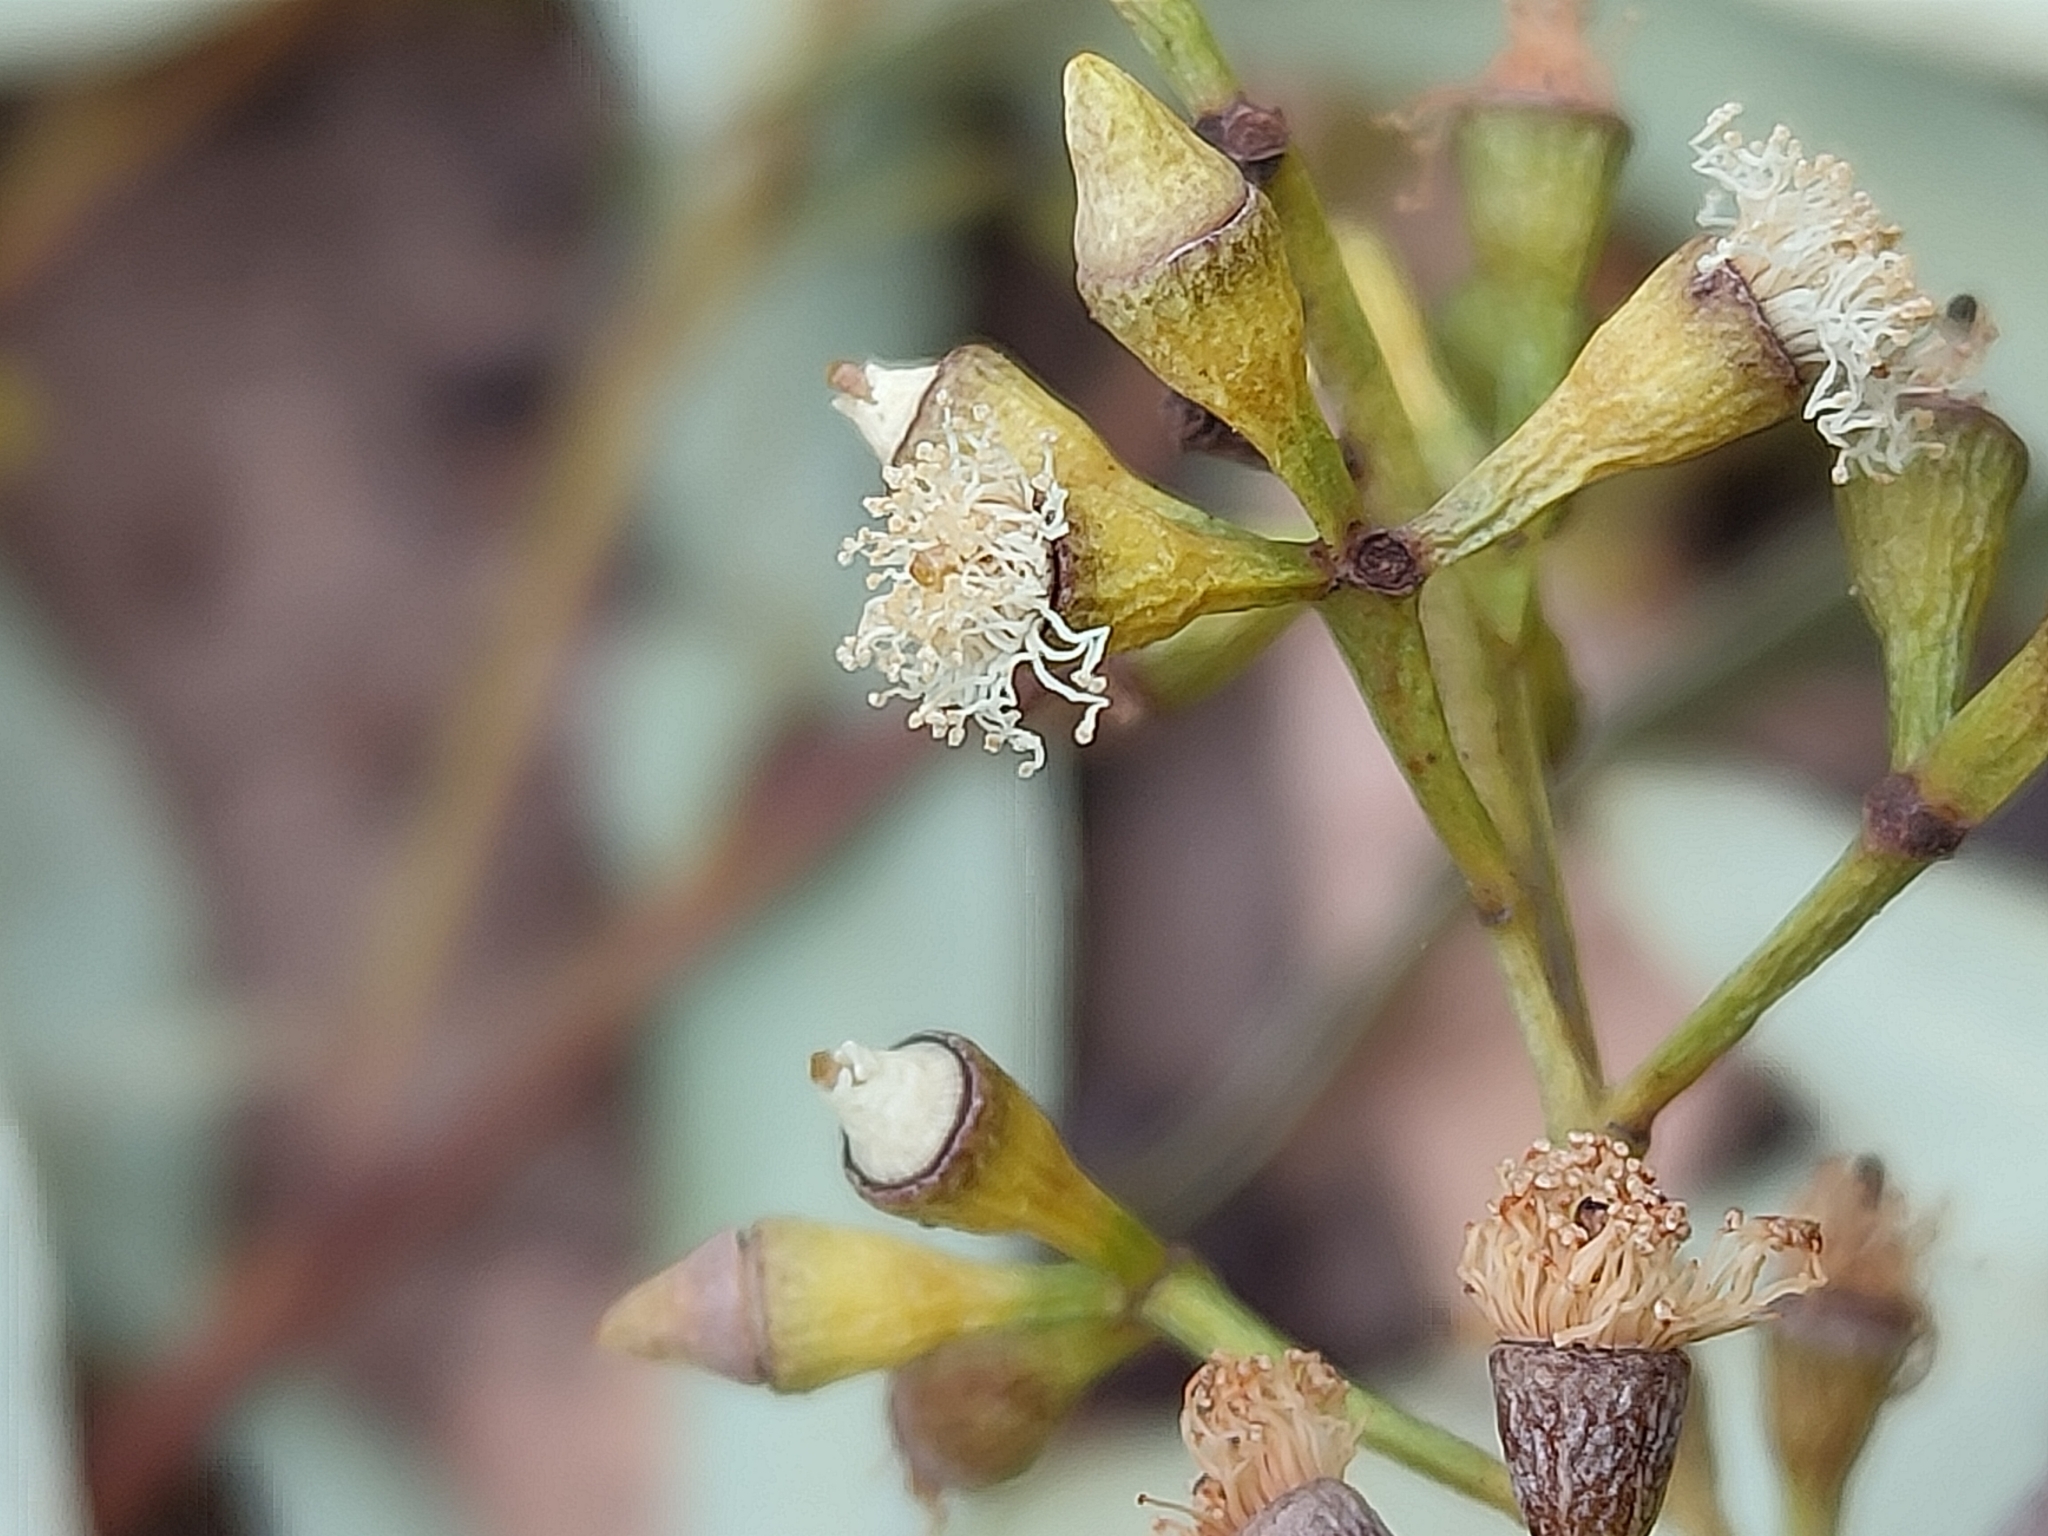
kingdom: Plantae
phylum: Tracheophyta
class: Magnoliopsida
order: Myrtales
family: Myrtaceae
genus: Corymbia
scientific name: Corymbia citriodora
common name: Lemonscented gum
